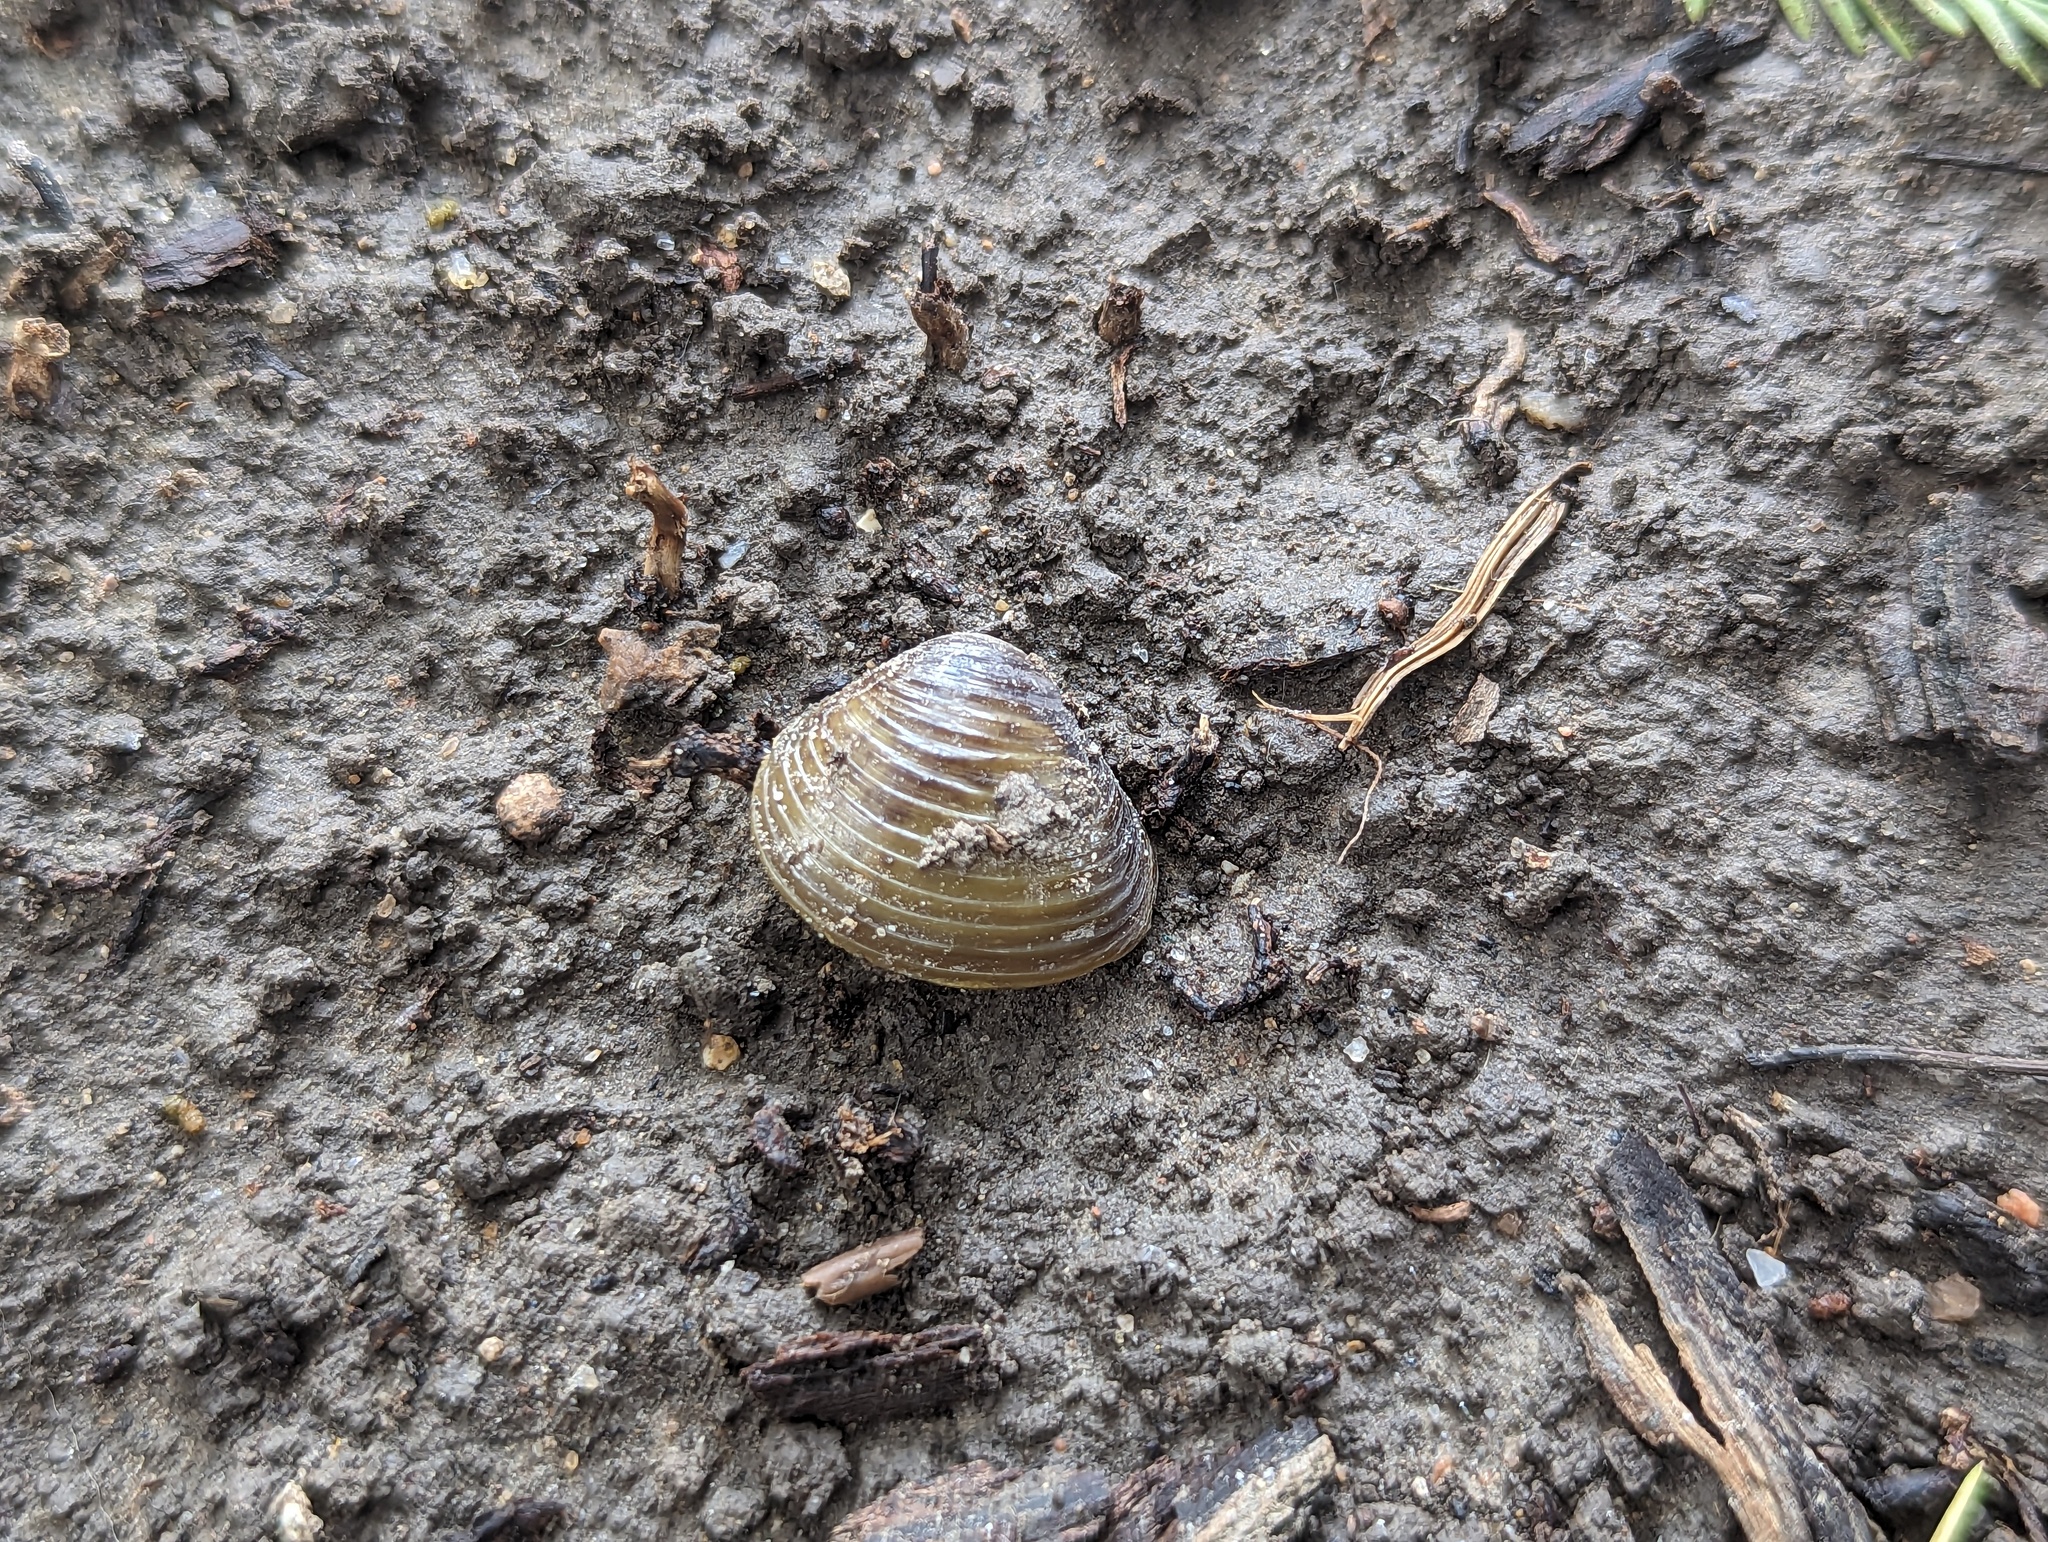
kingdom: Animalia
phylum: Mollusca
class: Bivalvia
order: Venerida
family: Cyrenidae
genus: Corbicula
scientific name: Corbicula fluminea
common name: Asian clam
